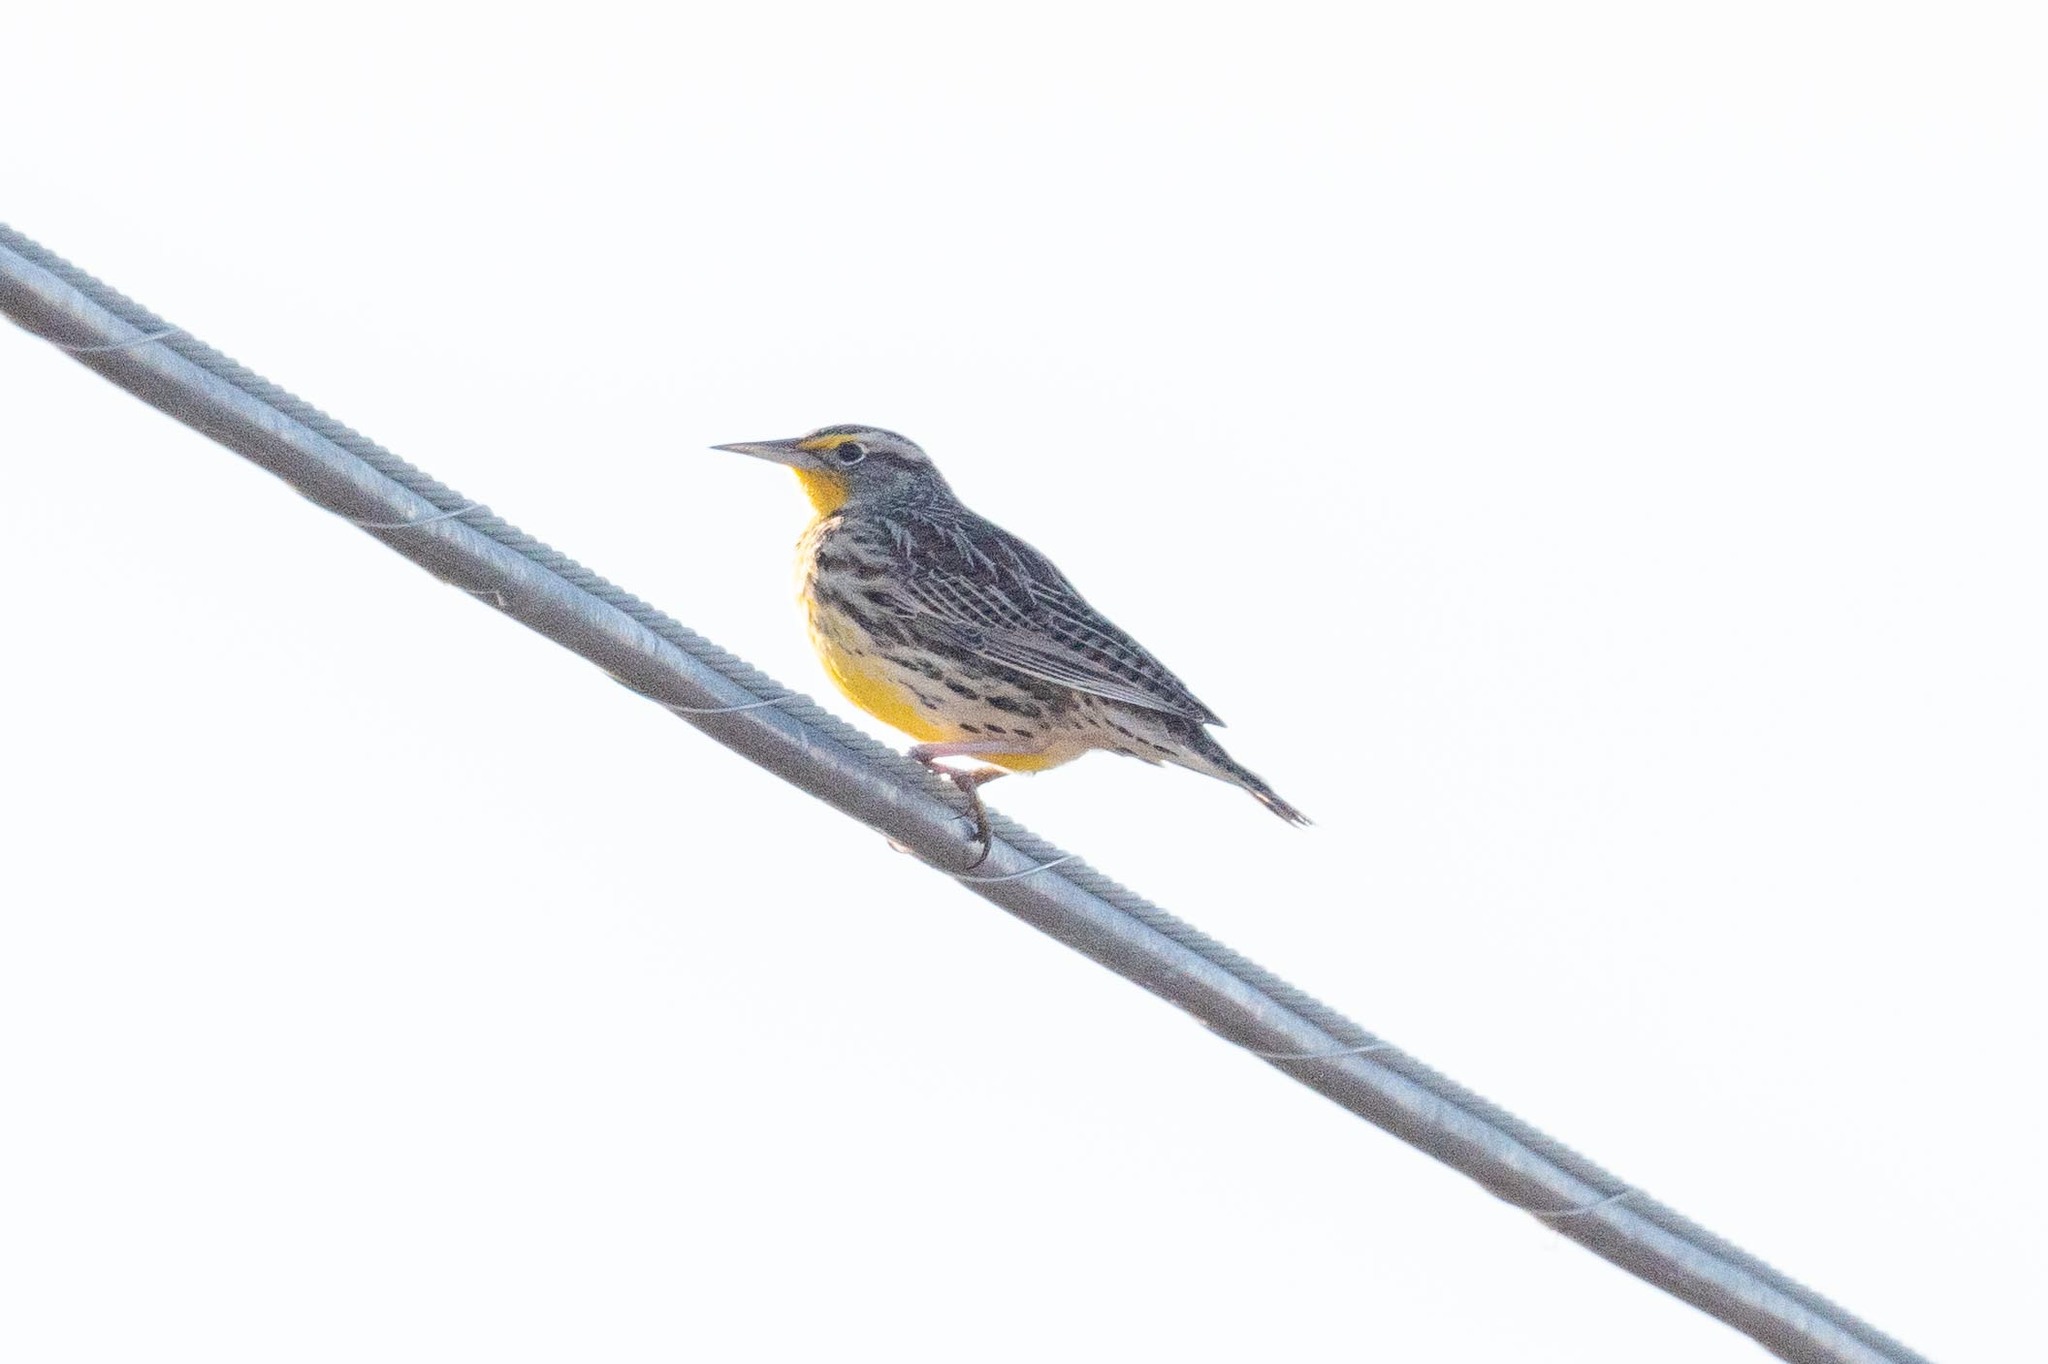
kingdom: Animalia
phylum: Chordata
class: Aves
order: Passeriformes
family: Icteridae
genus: Sturnella
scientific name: Sturnella neglecta
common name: Western meadowlark
